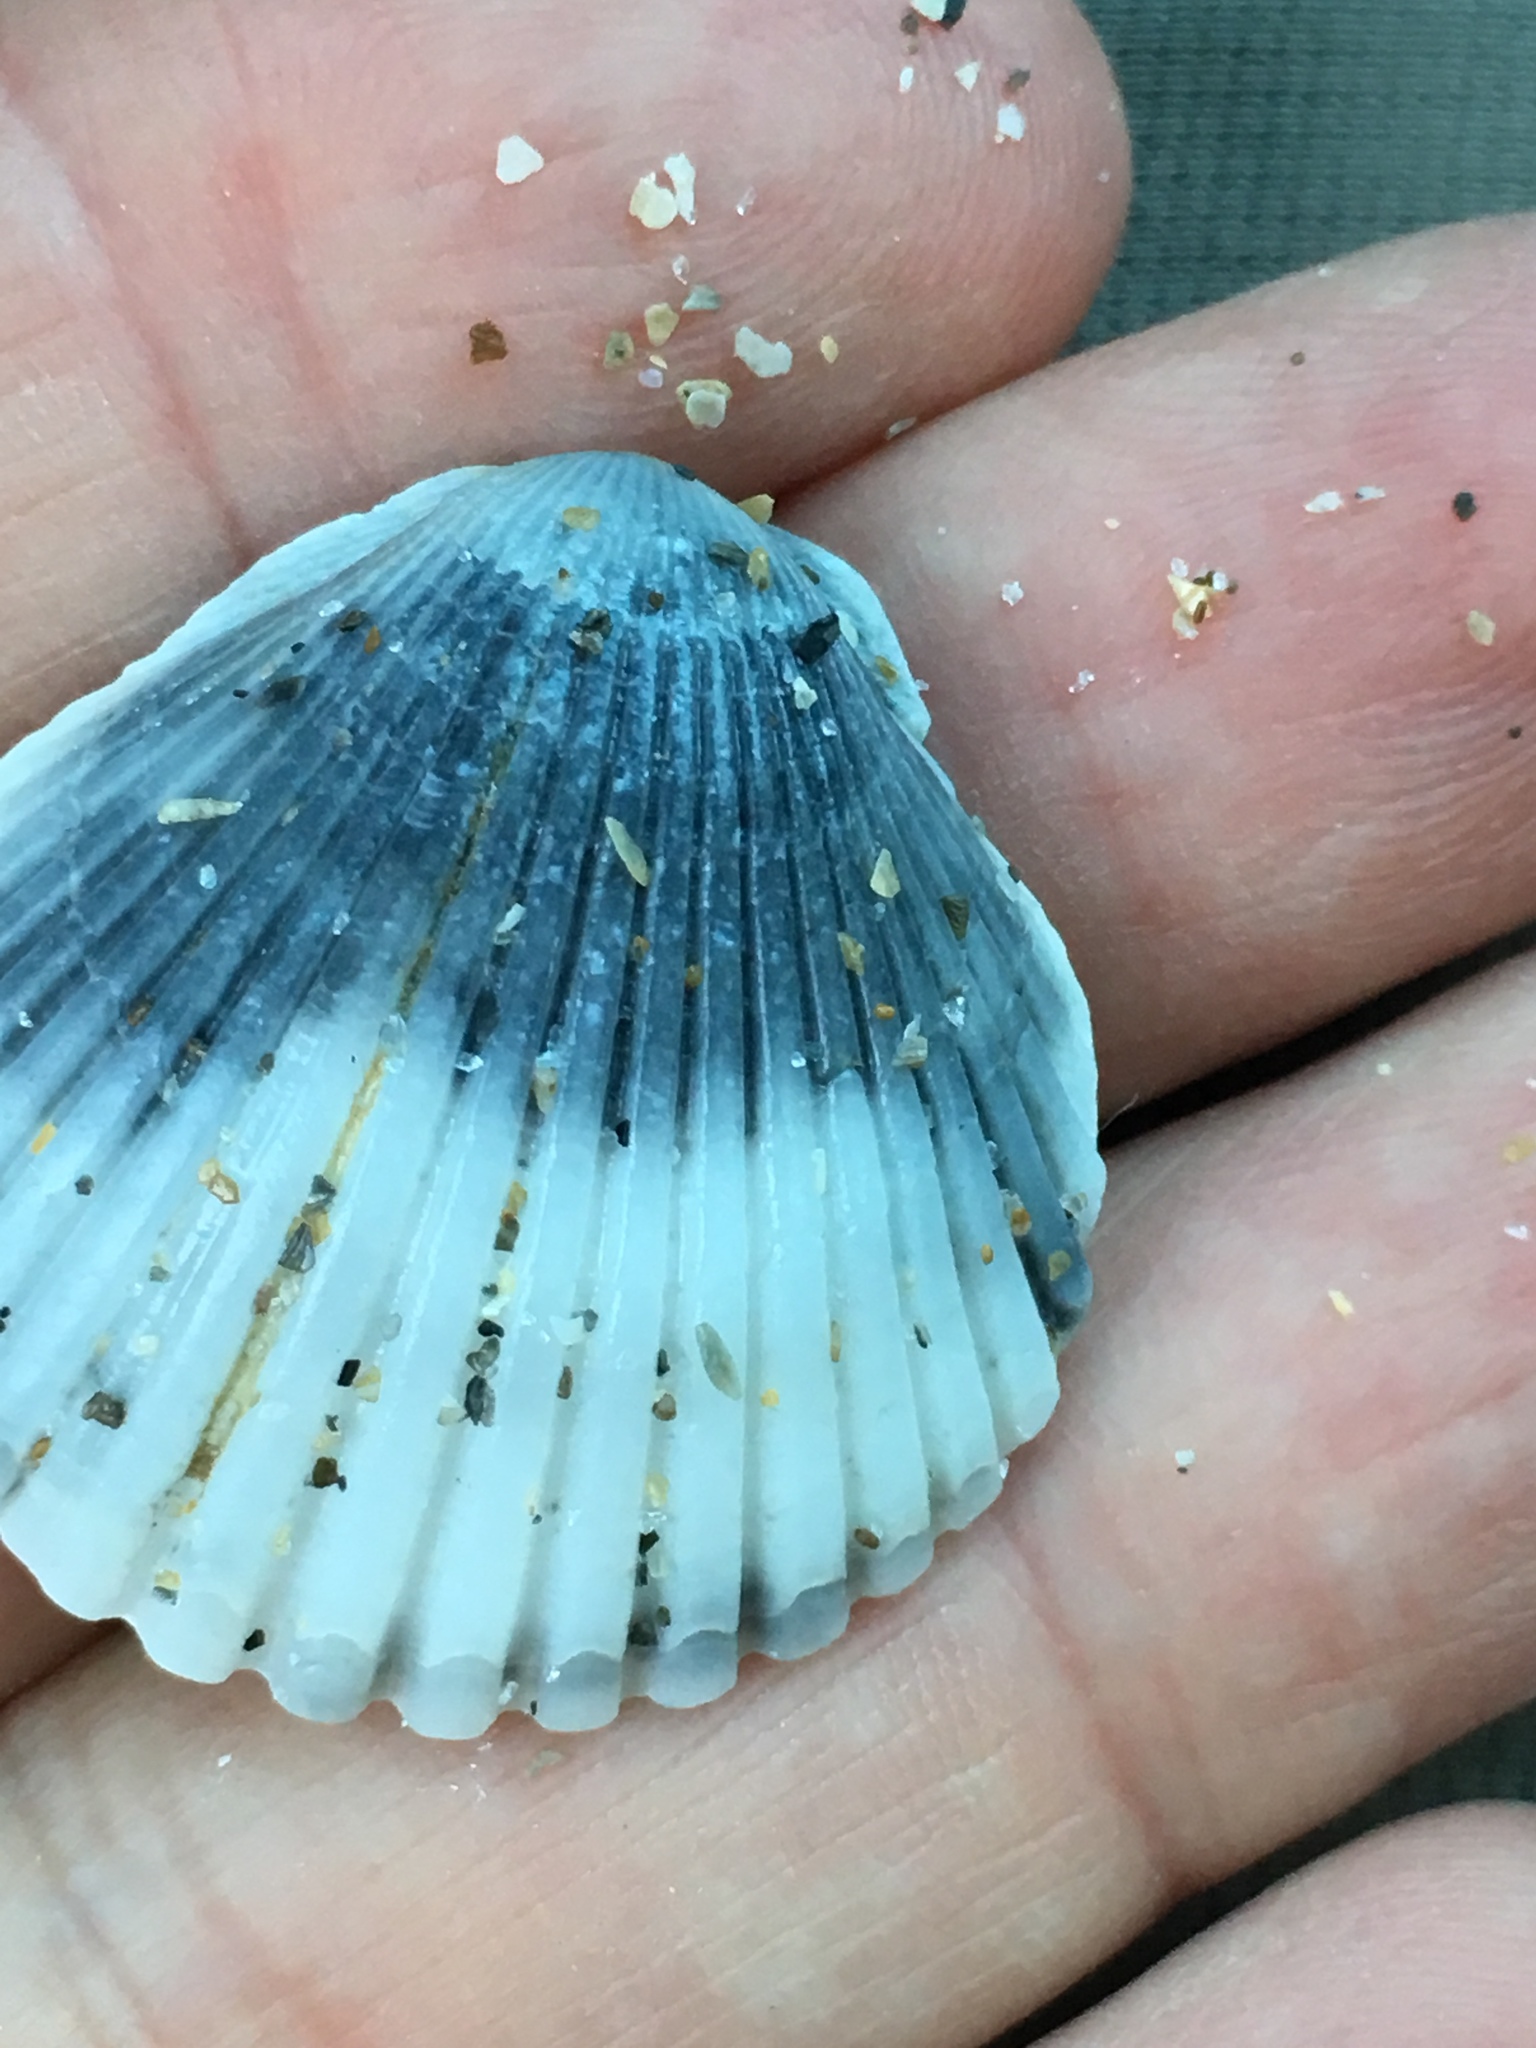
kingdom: Animalia
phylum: Mollusca
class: Bivalvia
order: Pectinida
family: Pectinidae
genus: Argopecten
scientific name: Argopecten gibbus
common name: Atlantic calico scallop
